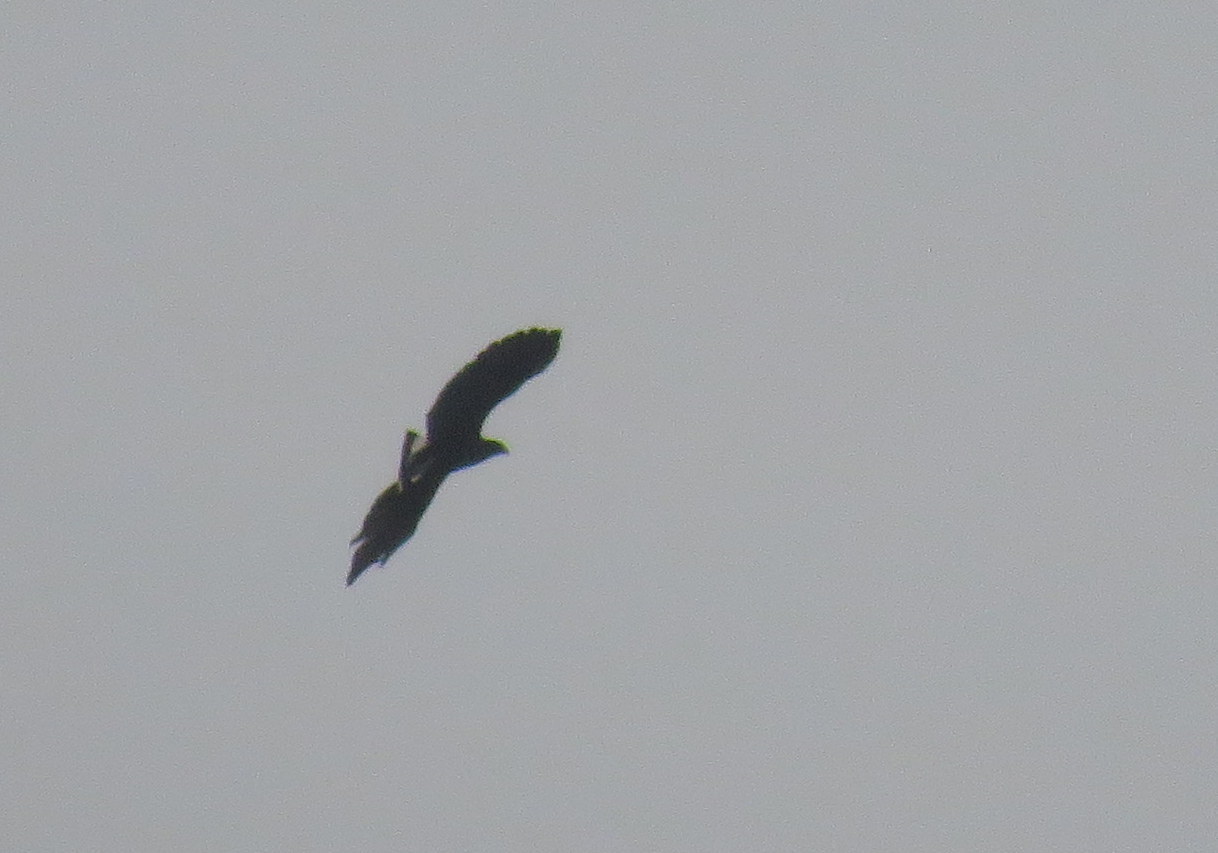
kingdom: Animalia
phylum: Chordata
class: Aves
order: Accipitriformes
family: Accipitridae
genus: Buteogallus
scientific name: Buteogallus urubitinga
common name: Great black hawk
